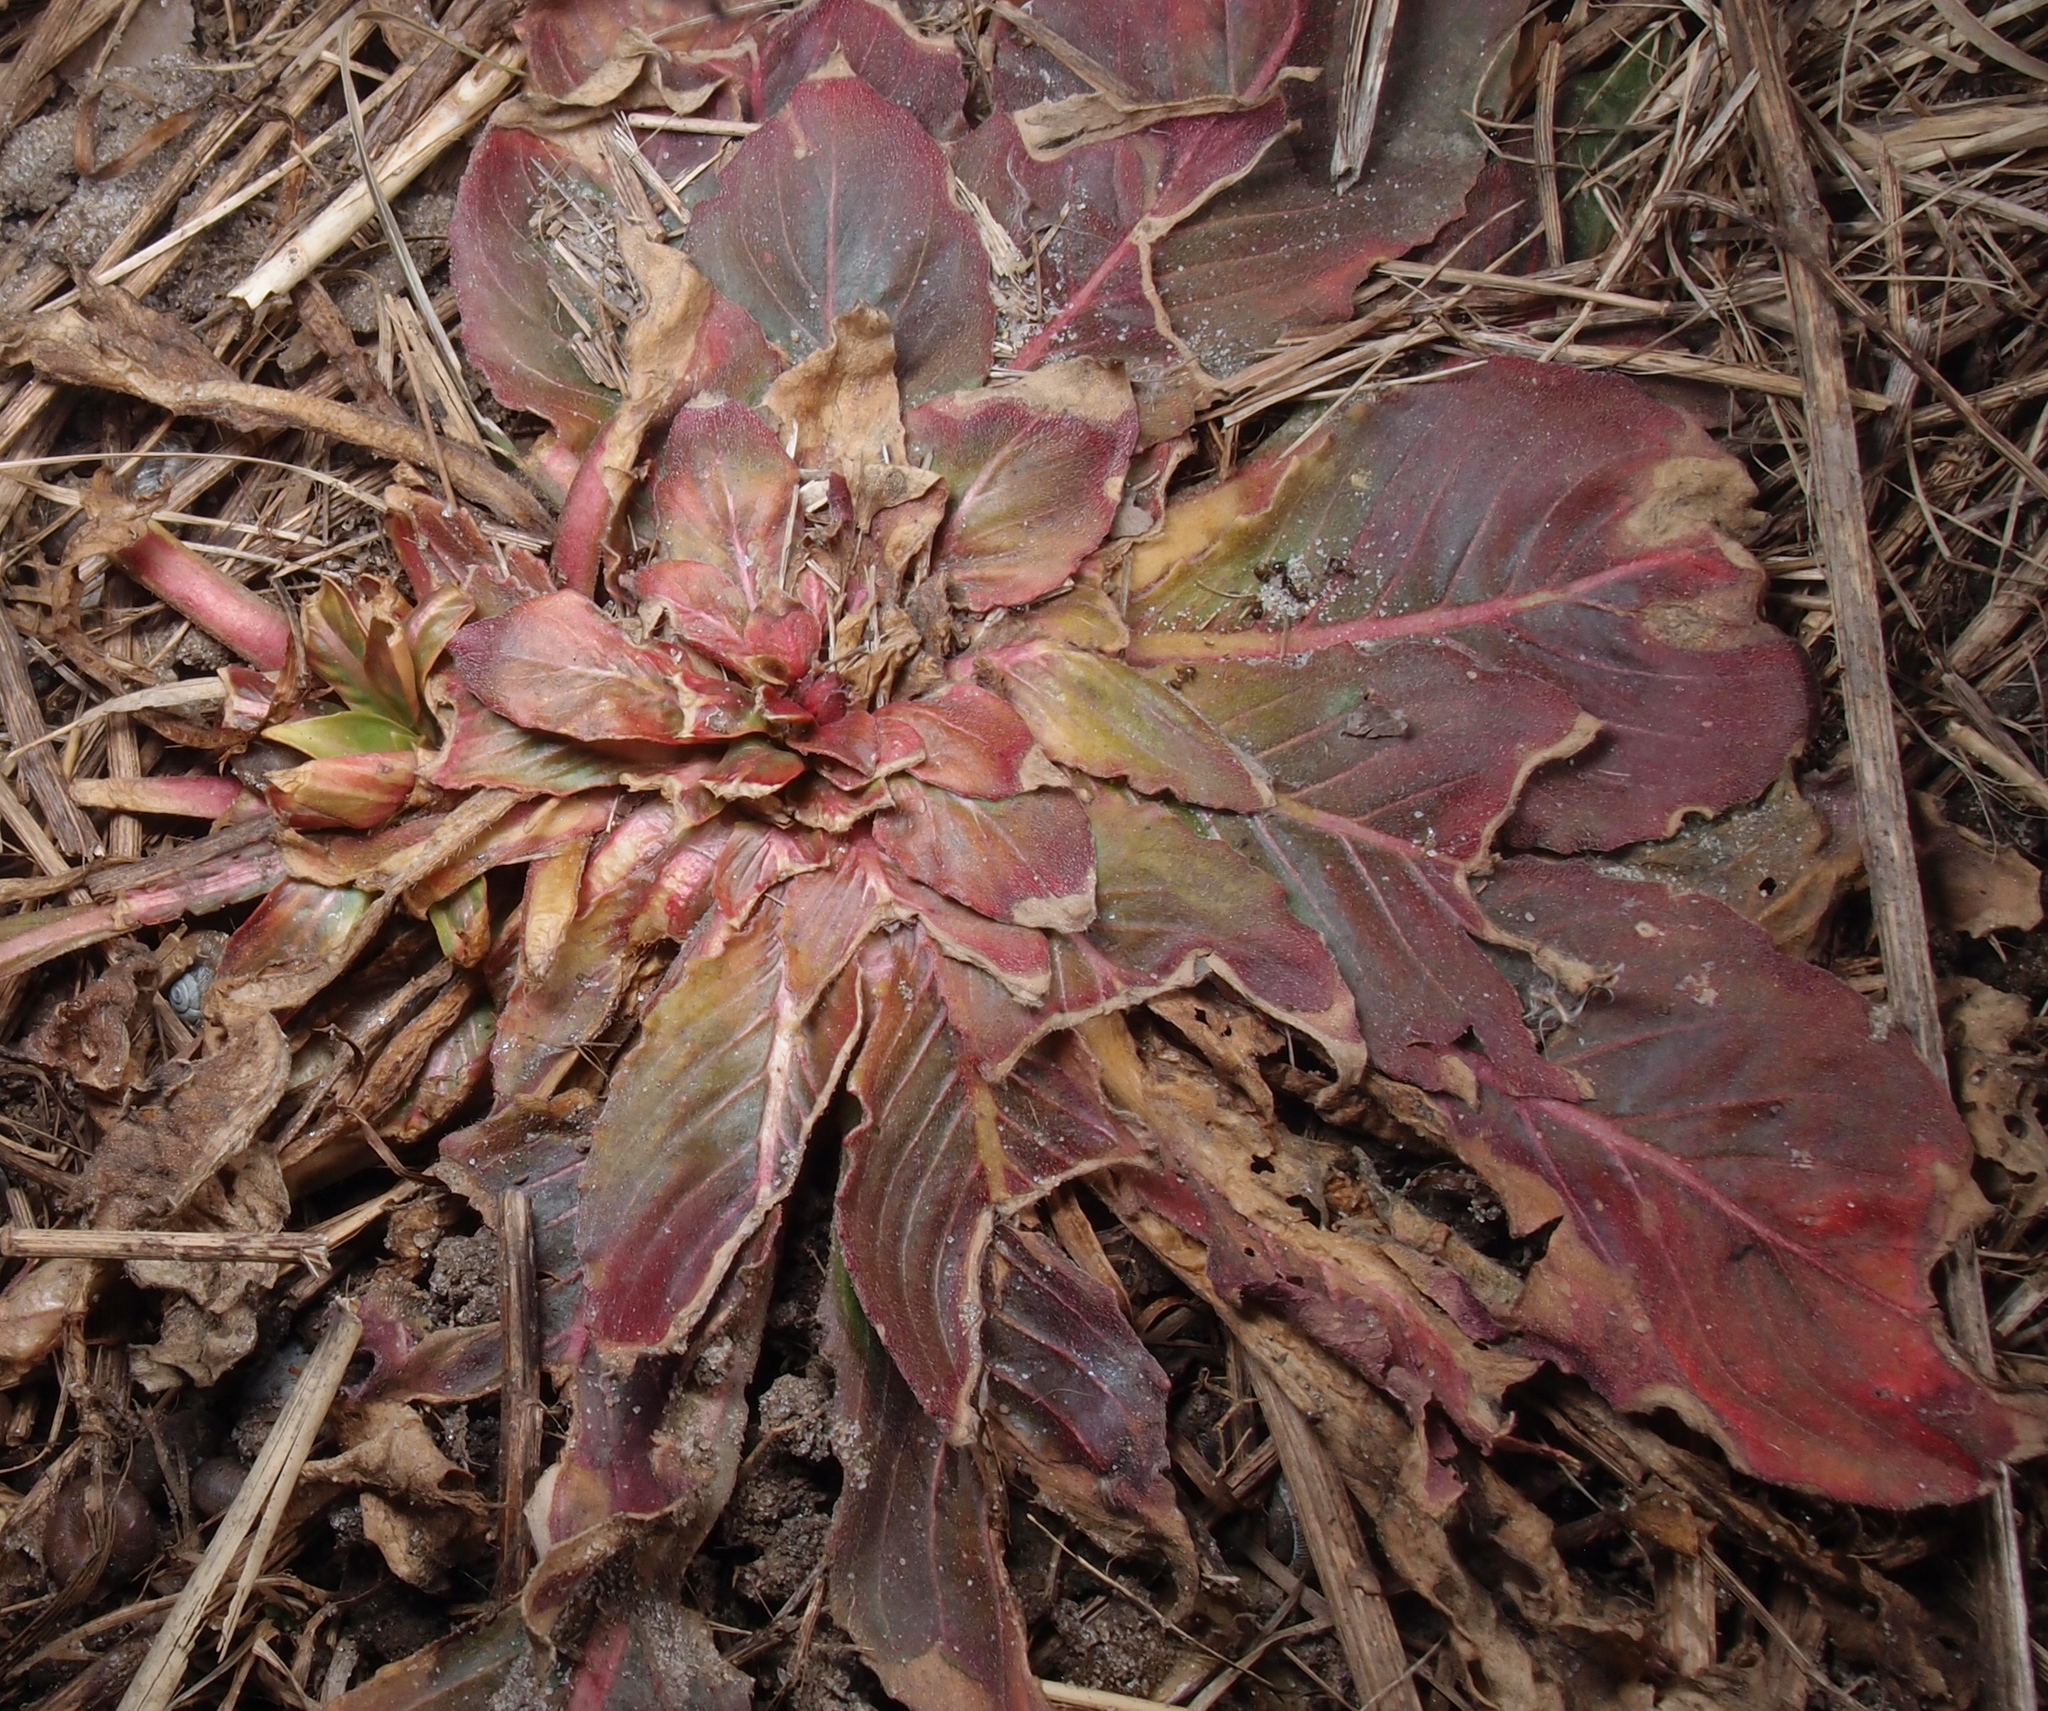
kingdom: Plantae
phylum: Tracheophyta
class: Magnoliopsida
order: Myrtales
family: Onagraceae
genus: Oenothera
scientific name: Oenothera biennis
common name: Common evening-primrose
